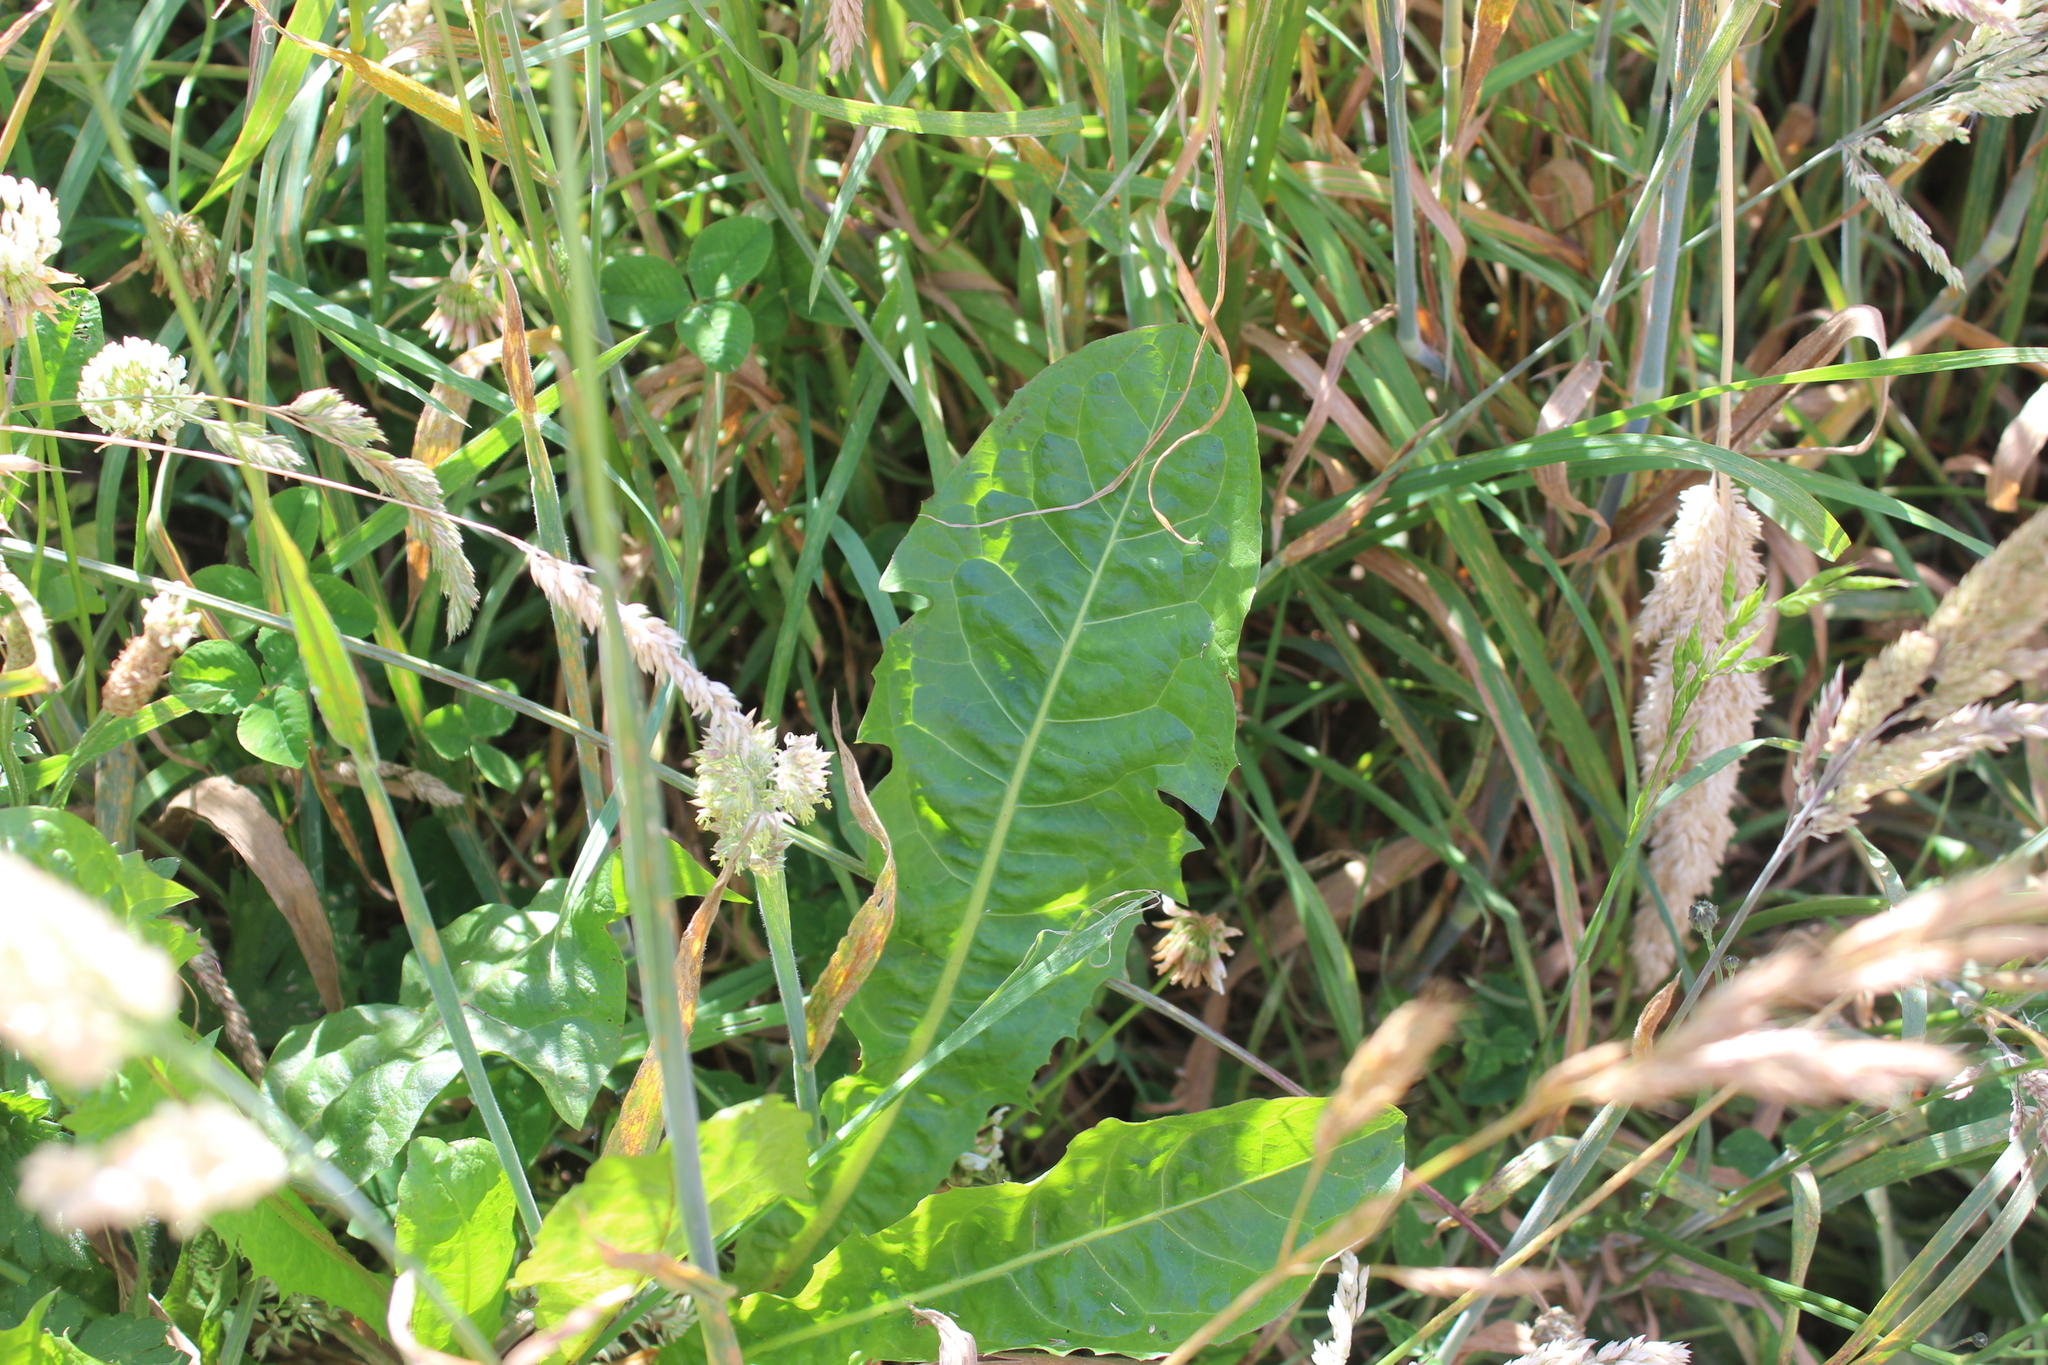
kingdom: Plantae
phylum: Tracheophyta
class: Magnoliopsida
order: Asterales
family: Asteraceae
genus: Taraxacum
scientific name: Taraxacum officinale
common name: Common dandelion
